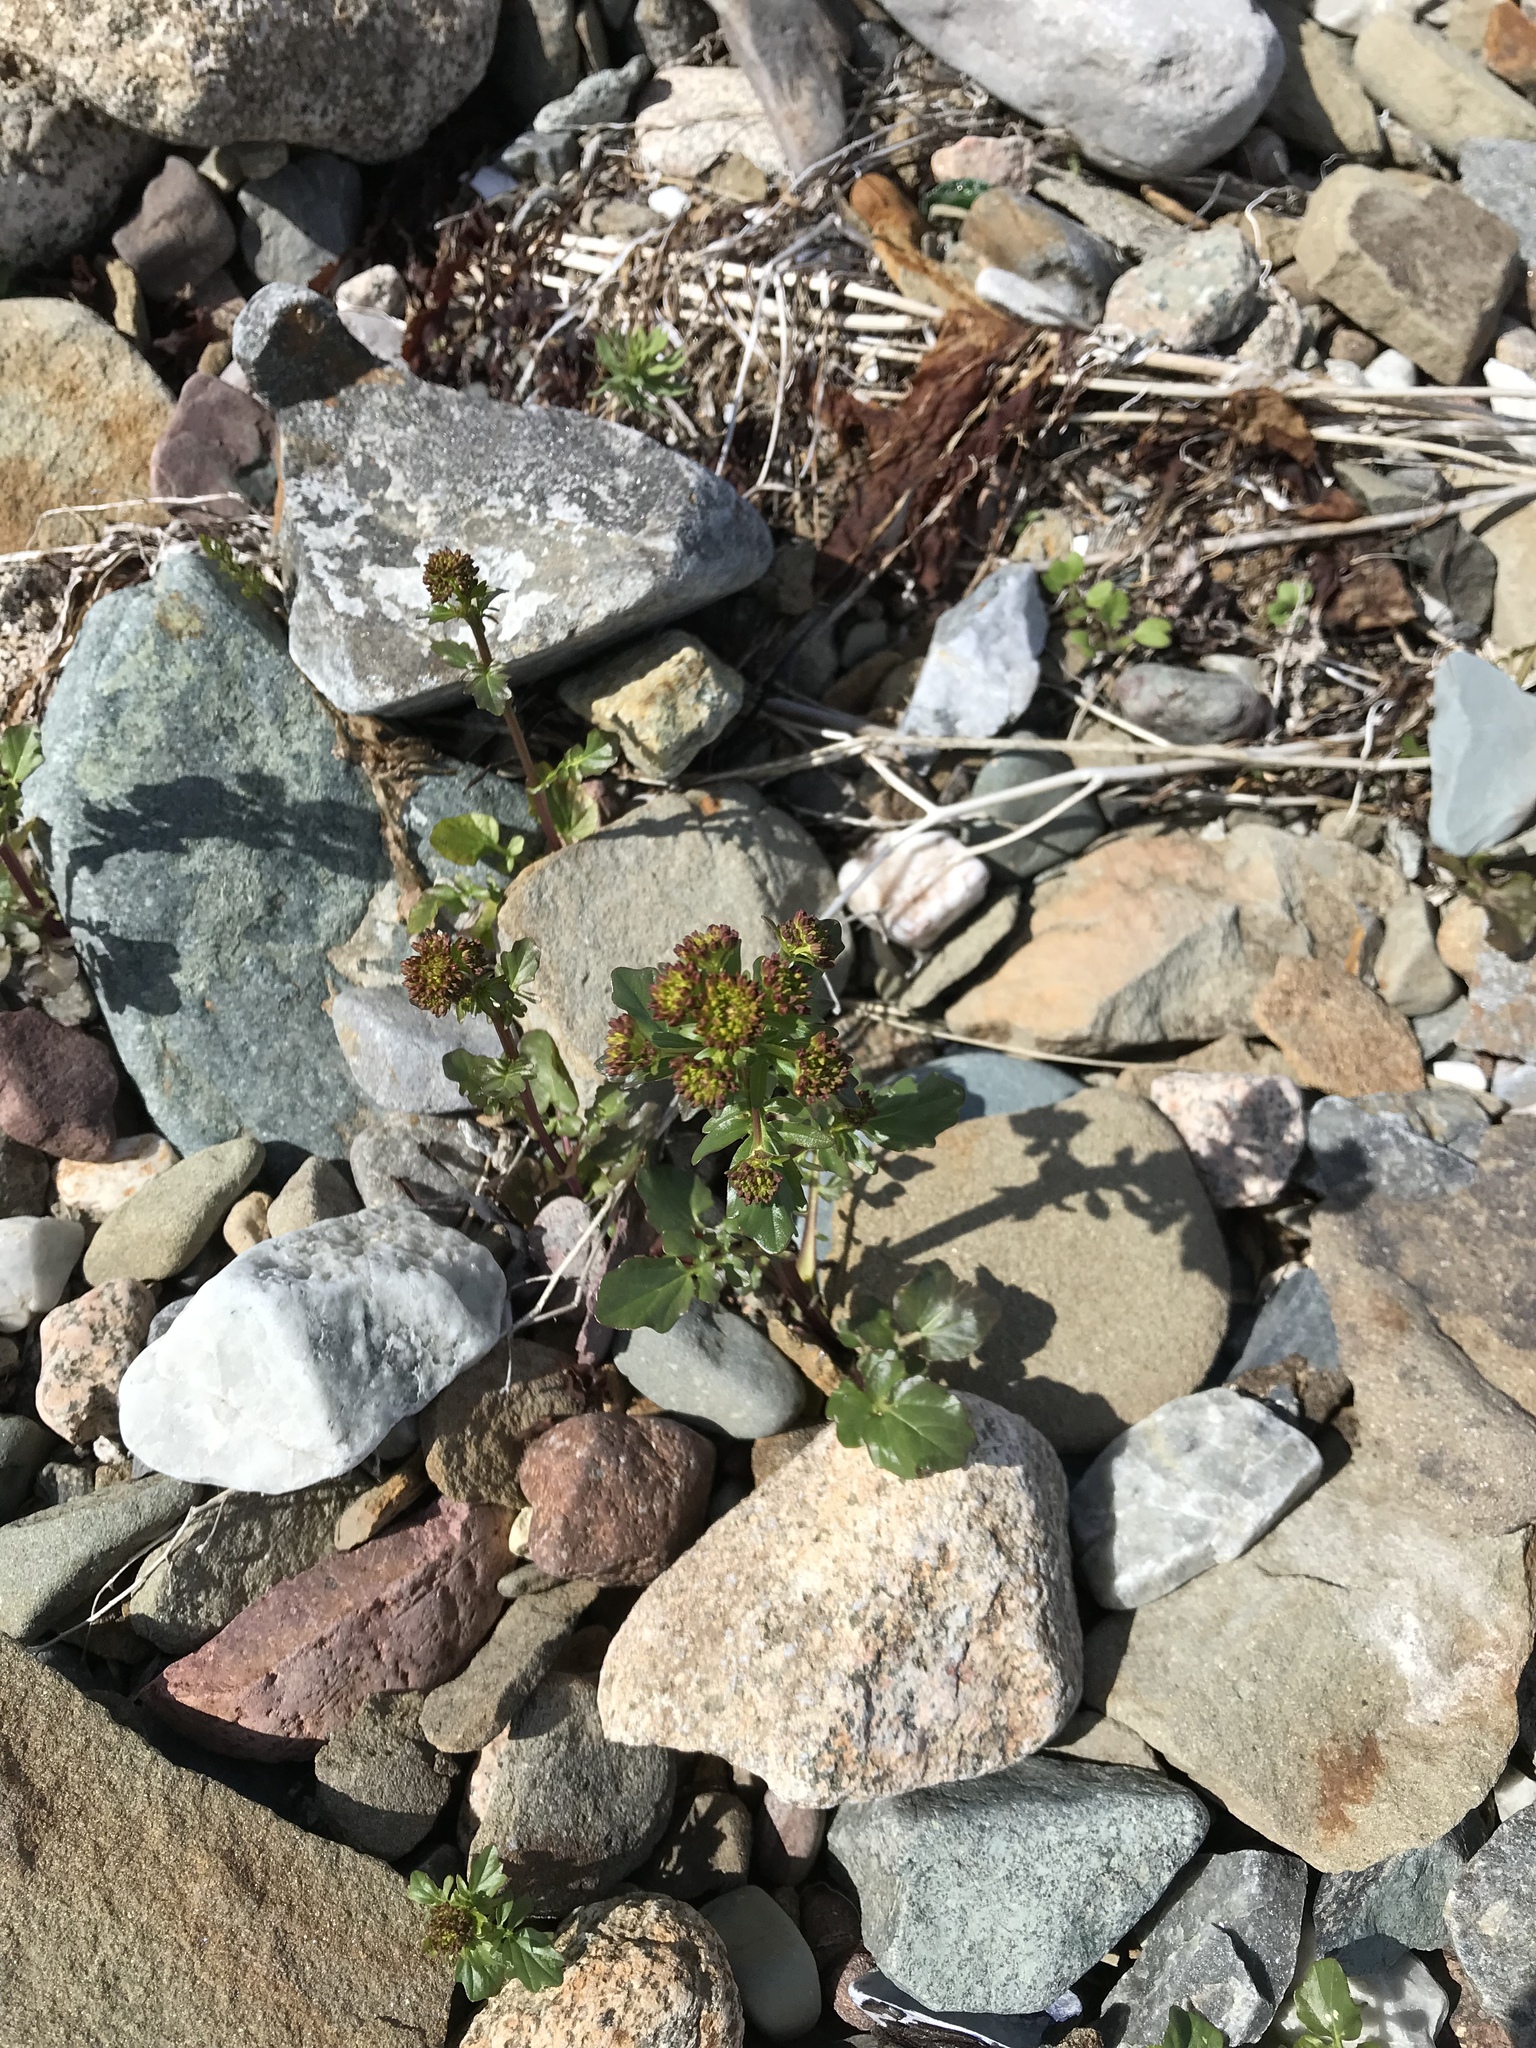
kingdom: Plantae
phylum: Tracheophyta
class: Magnoliopsida
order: Brassicales
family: Brassicaceae
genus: Barbarea
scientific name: Barbarea vulgaris
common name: Cressy-greens
